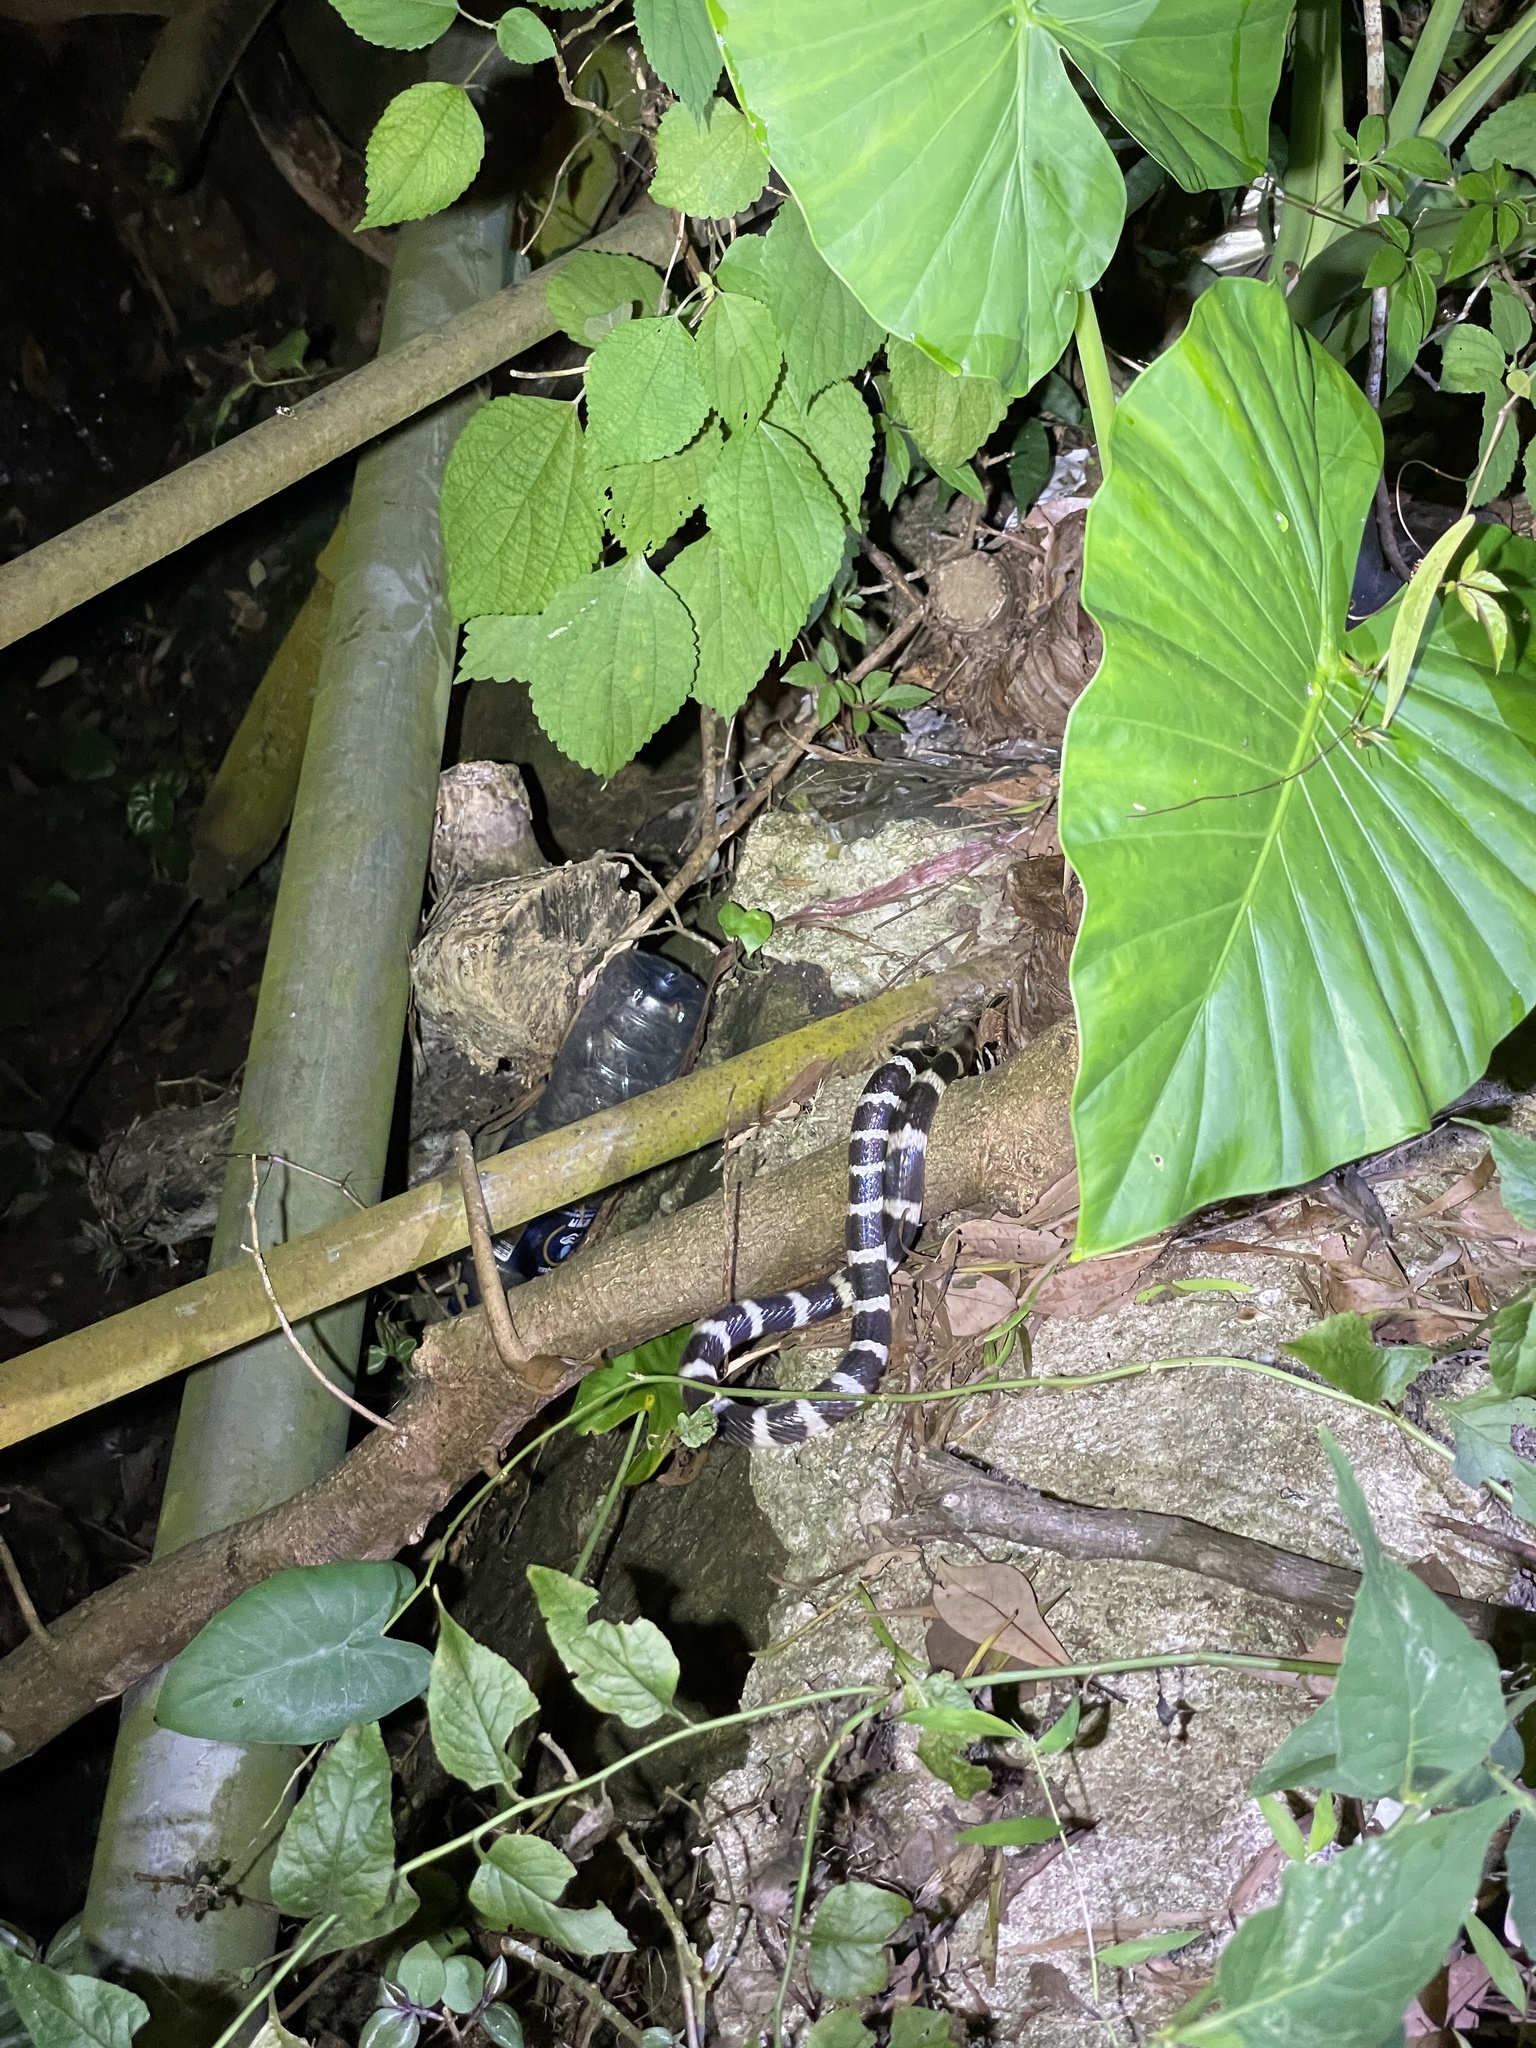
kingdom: Animalia
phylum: Chordata
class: Squamata
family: Elapidae
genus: Bungarus
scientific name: Bungarus multicinctus
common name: Many-banded krait
